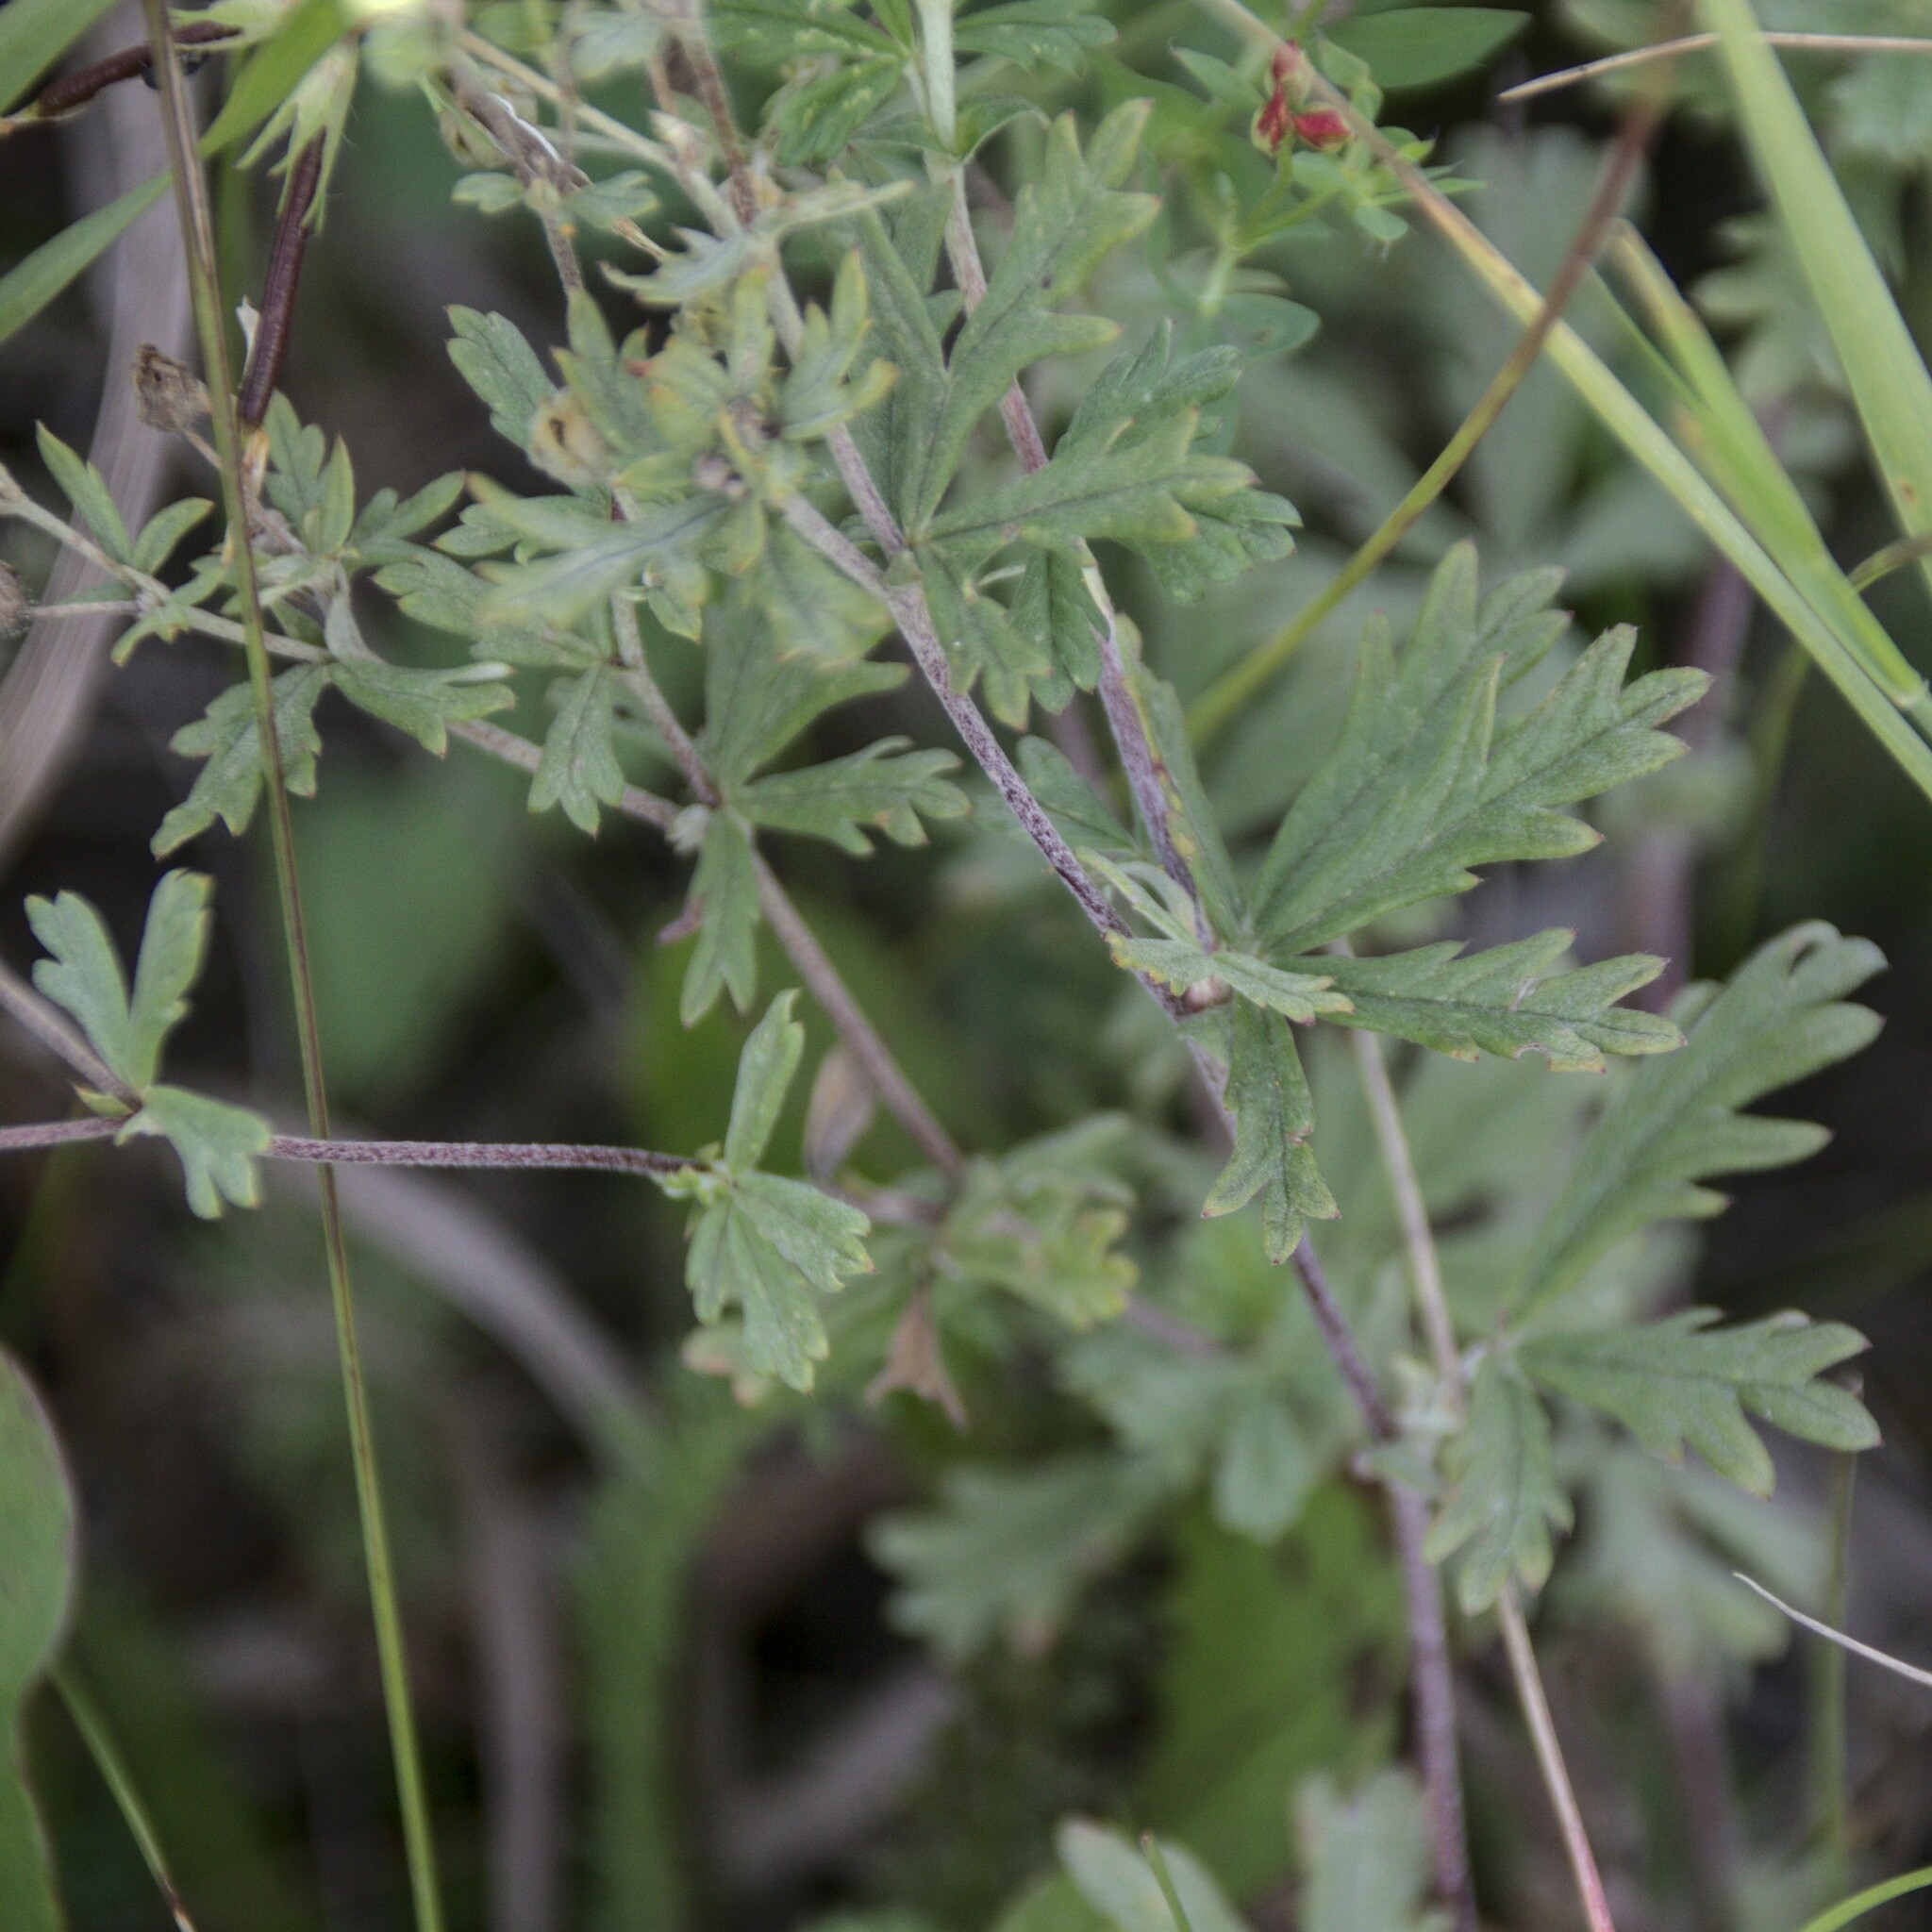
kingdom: Plantae
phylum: Tracheophyta
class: Magnoliopsida
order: Rosales
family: Rosaceae
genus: Potentilla
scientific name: Potentilla argentea
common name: Hoary cinquefoil
